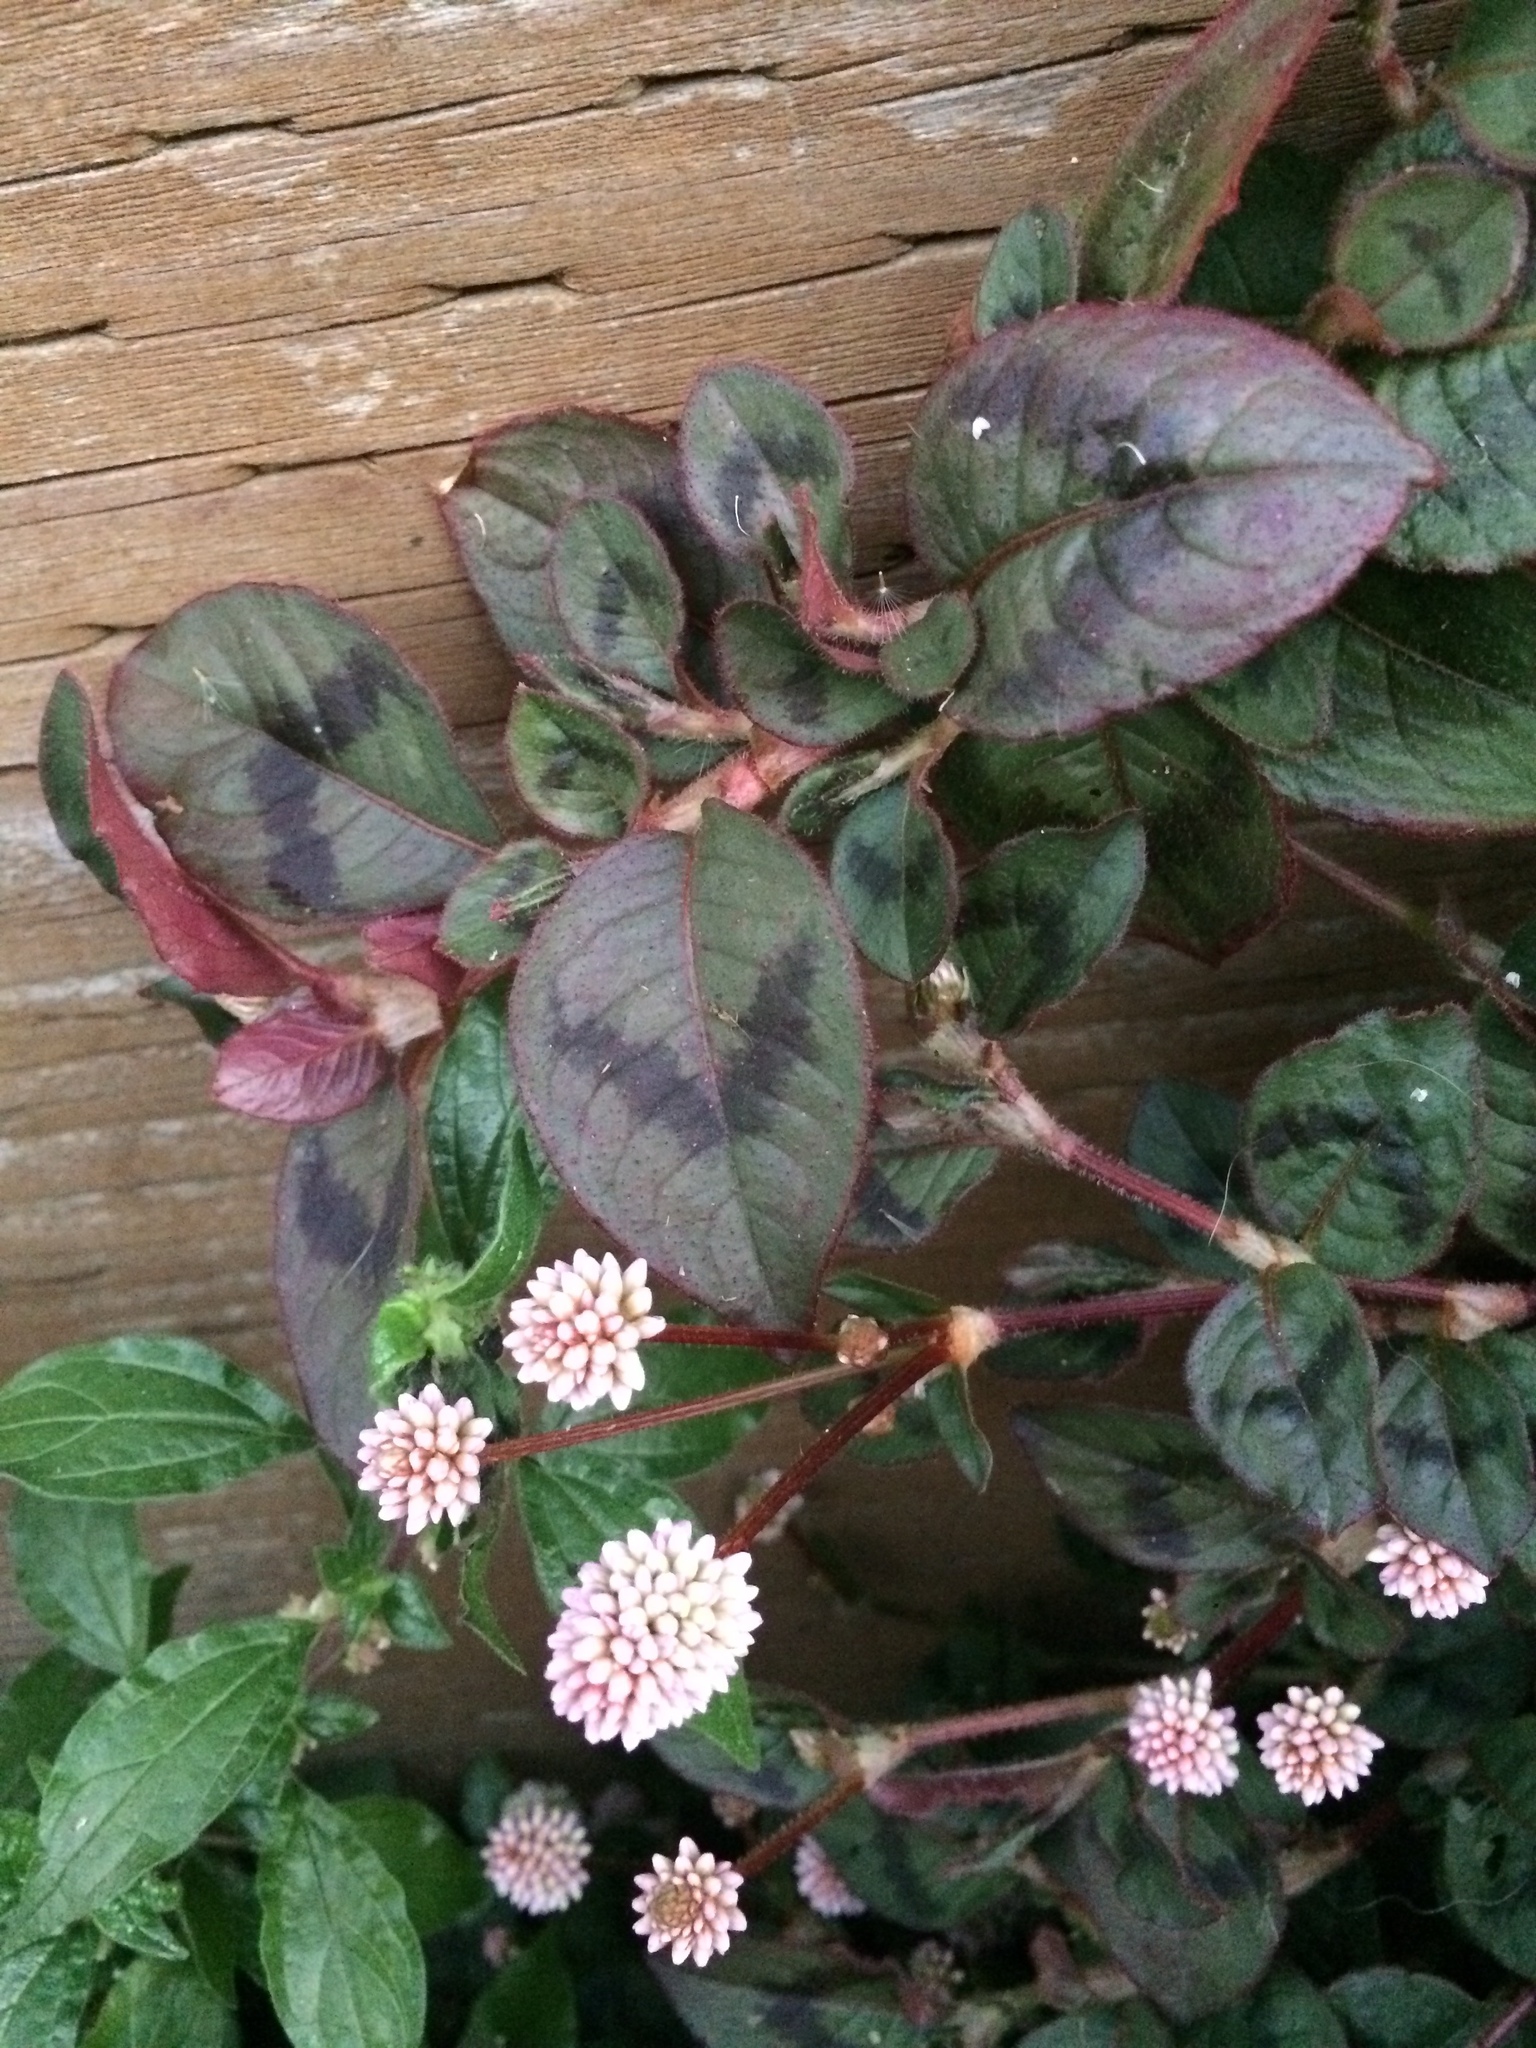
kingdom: Plantae
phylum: Tracheophyta
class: Magnoliopsida
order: Caryophyllales
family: Polygonaceae
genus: Persicaria
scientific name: Persicaria capitata
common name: Pinkhead smartweed
